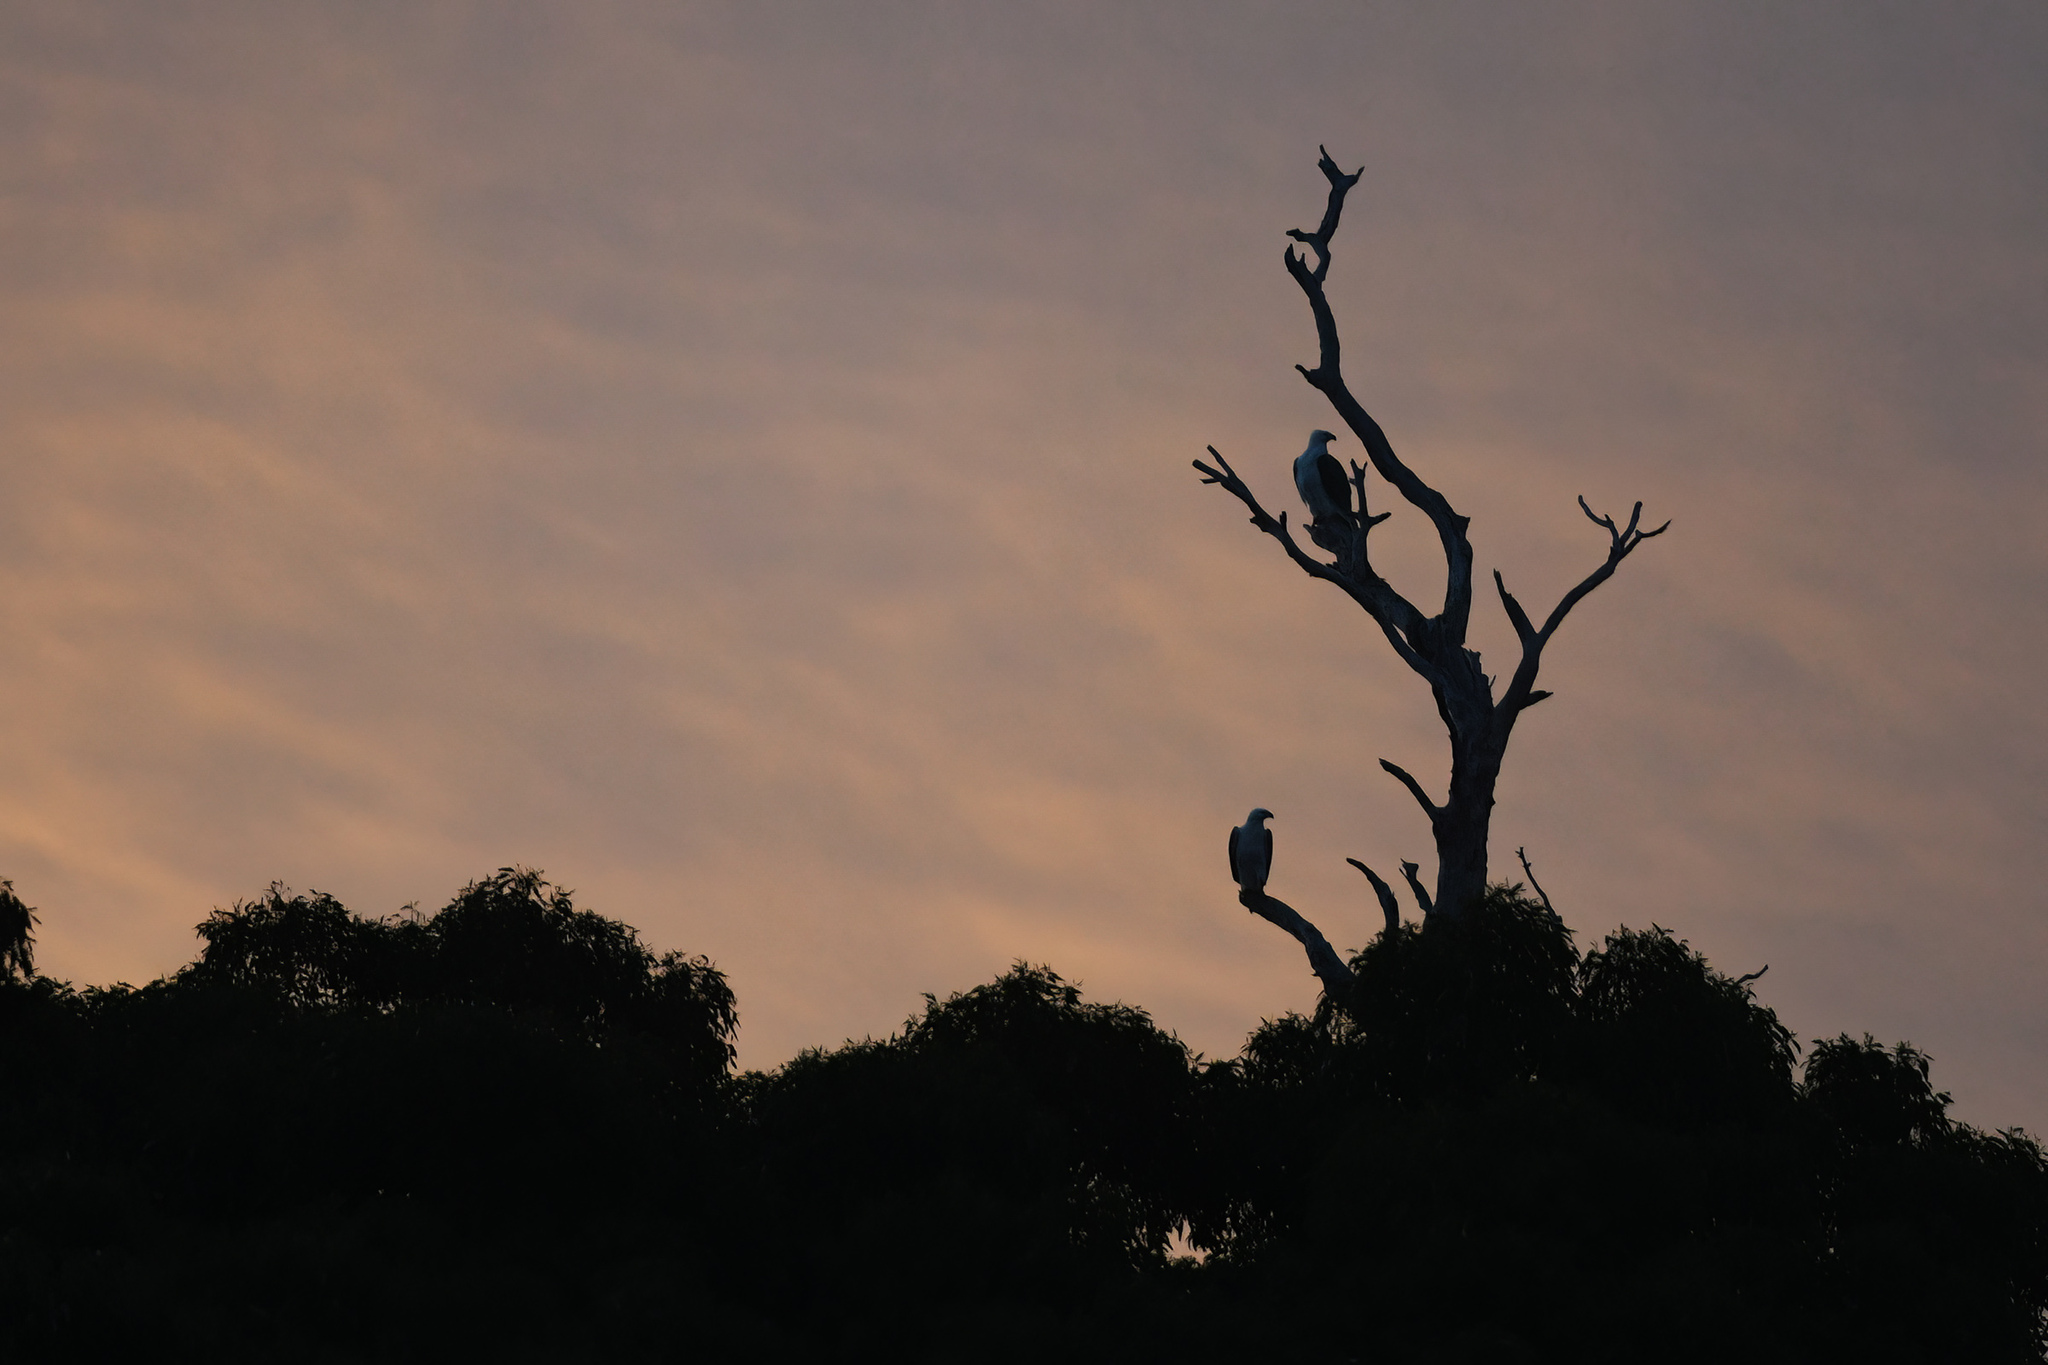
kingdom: Animalia
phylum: Chordata
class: Aves
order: Accipitriformes
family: Accipitridae
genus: Haliaeetus
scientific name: Haliaeetus leucogaster
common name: White-bellied sea eagle
